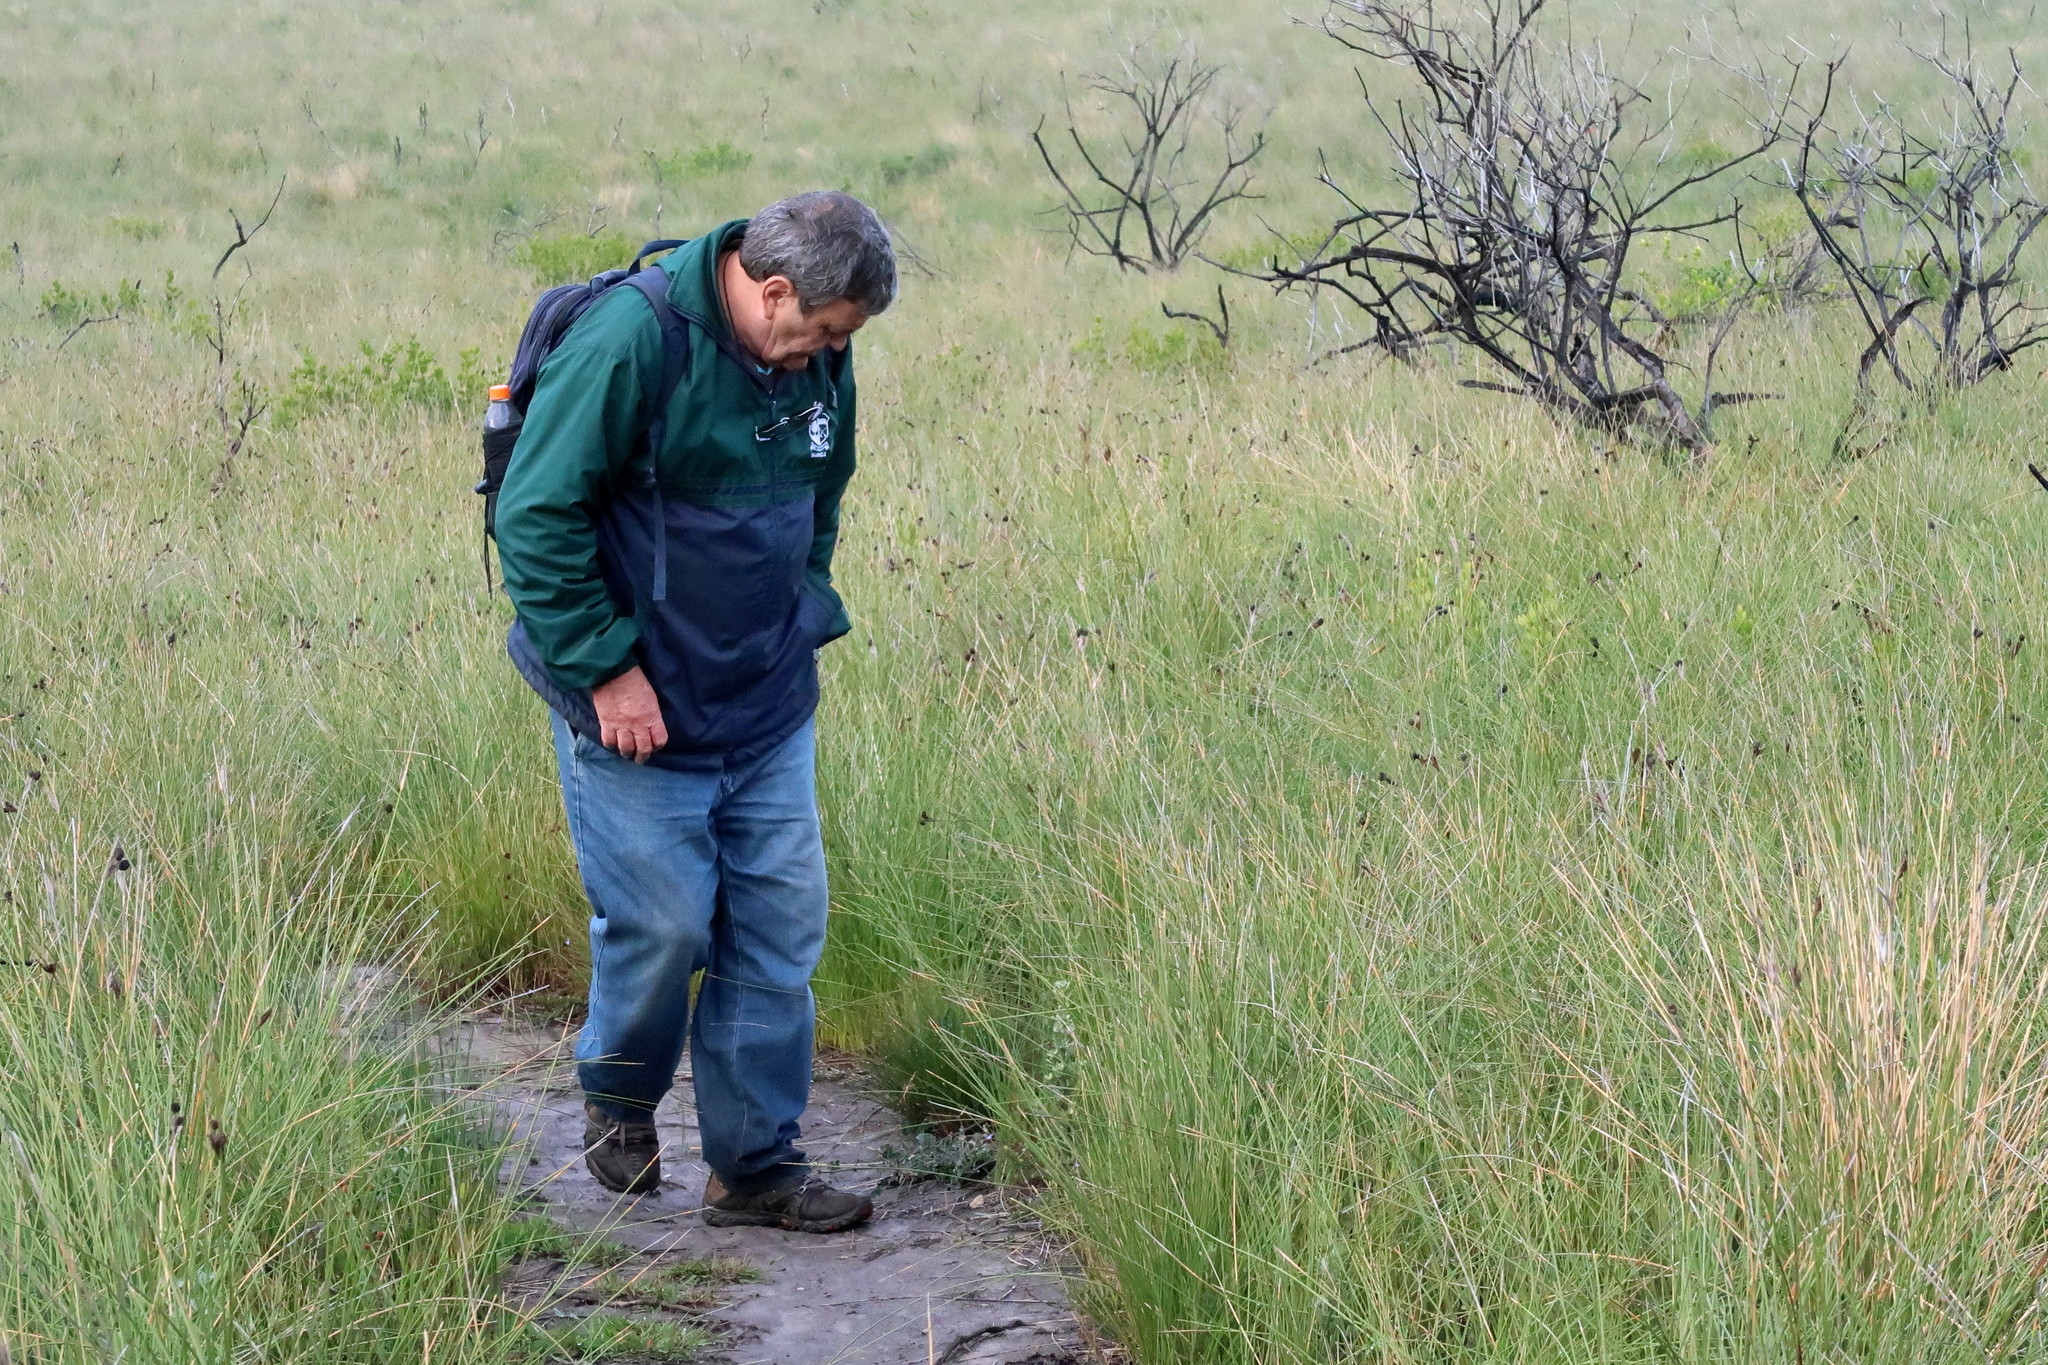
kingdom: Plantae
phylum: Tracheophyta
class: Liliopsida
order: Asparagales
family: Iridaceae
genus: Bobartia
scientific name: Bobartia aphylla
